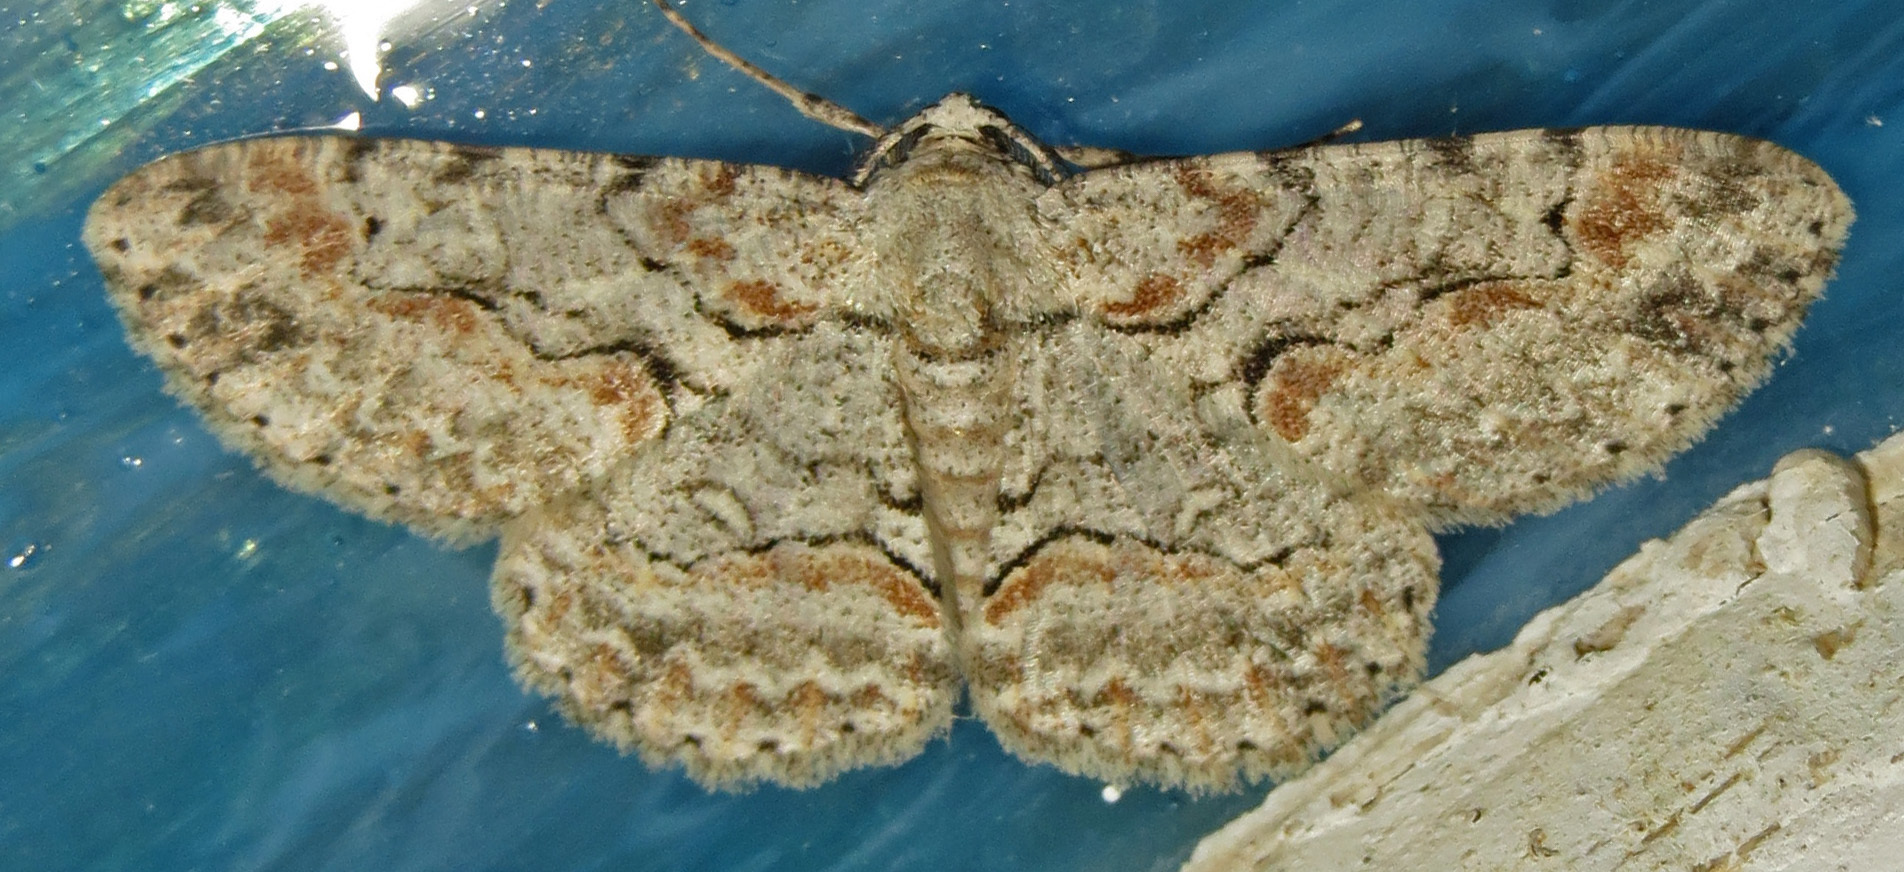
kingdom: Animalia
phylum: Arthropoda
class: Insecta
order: Lepidoptera
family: Geometridae
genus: Iridopsis
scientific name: Iridopsis defectaria
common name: Brown-shaded gray
